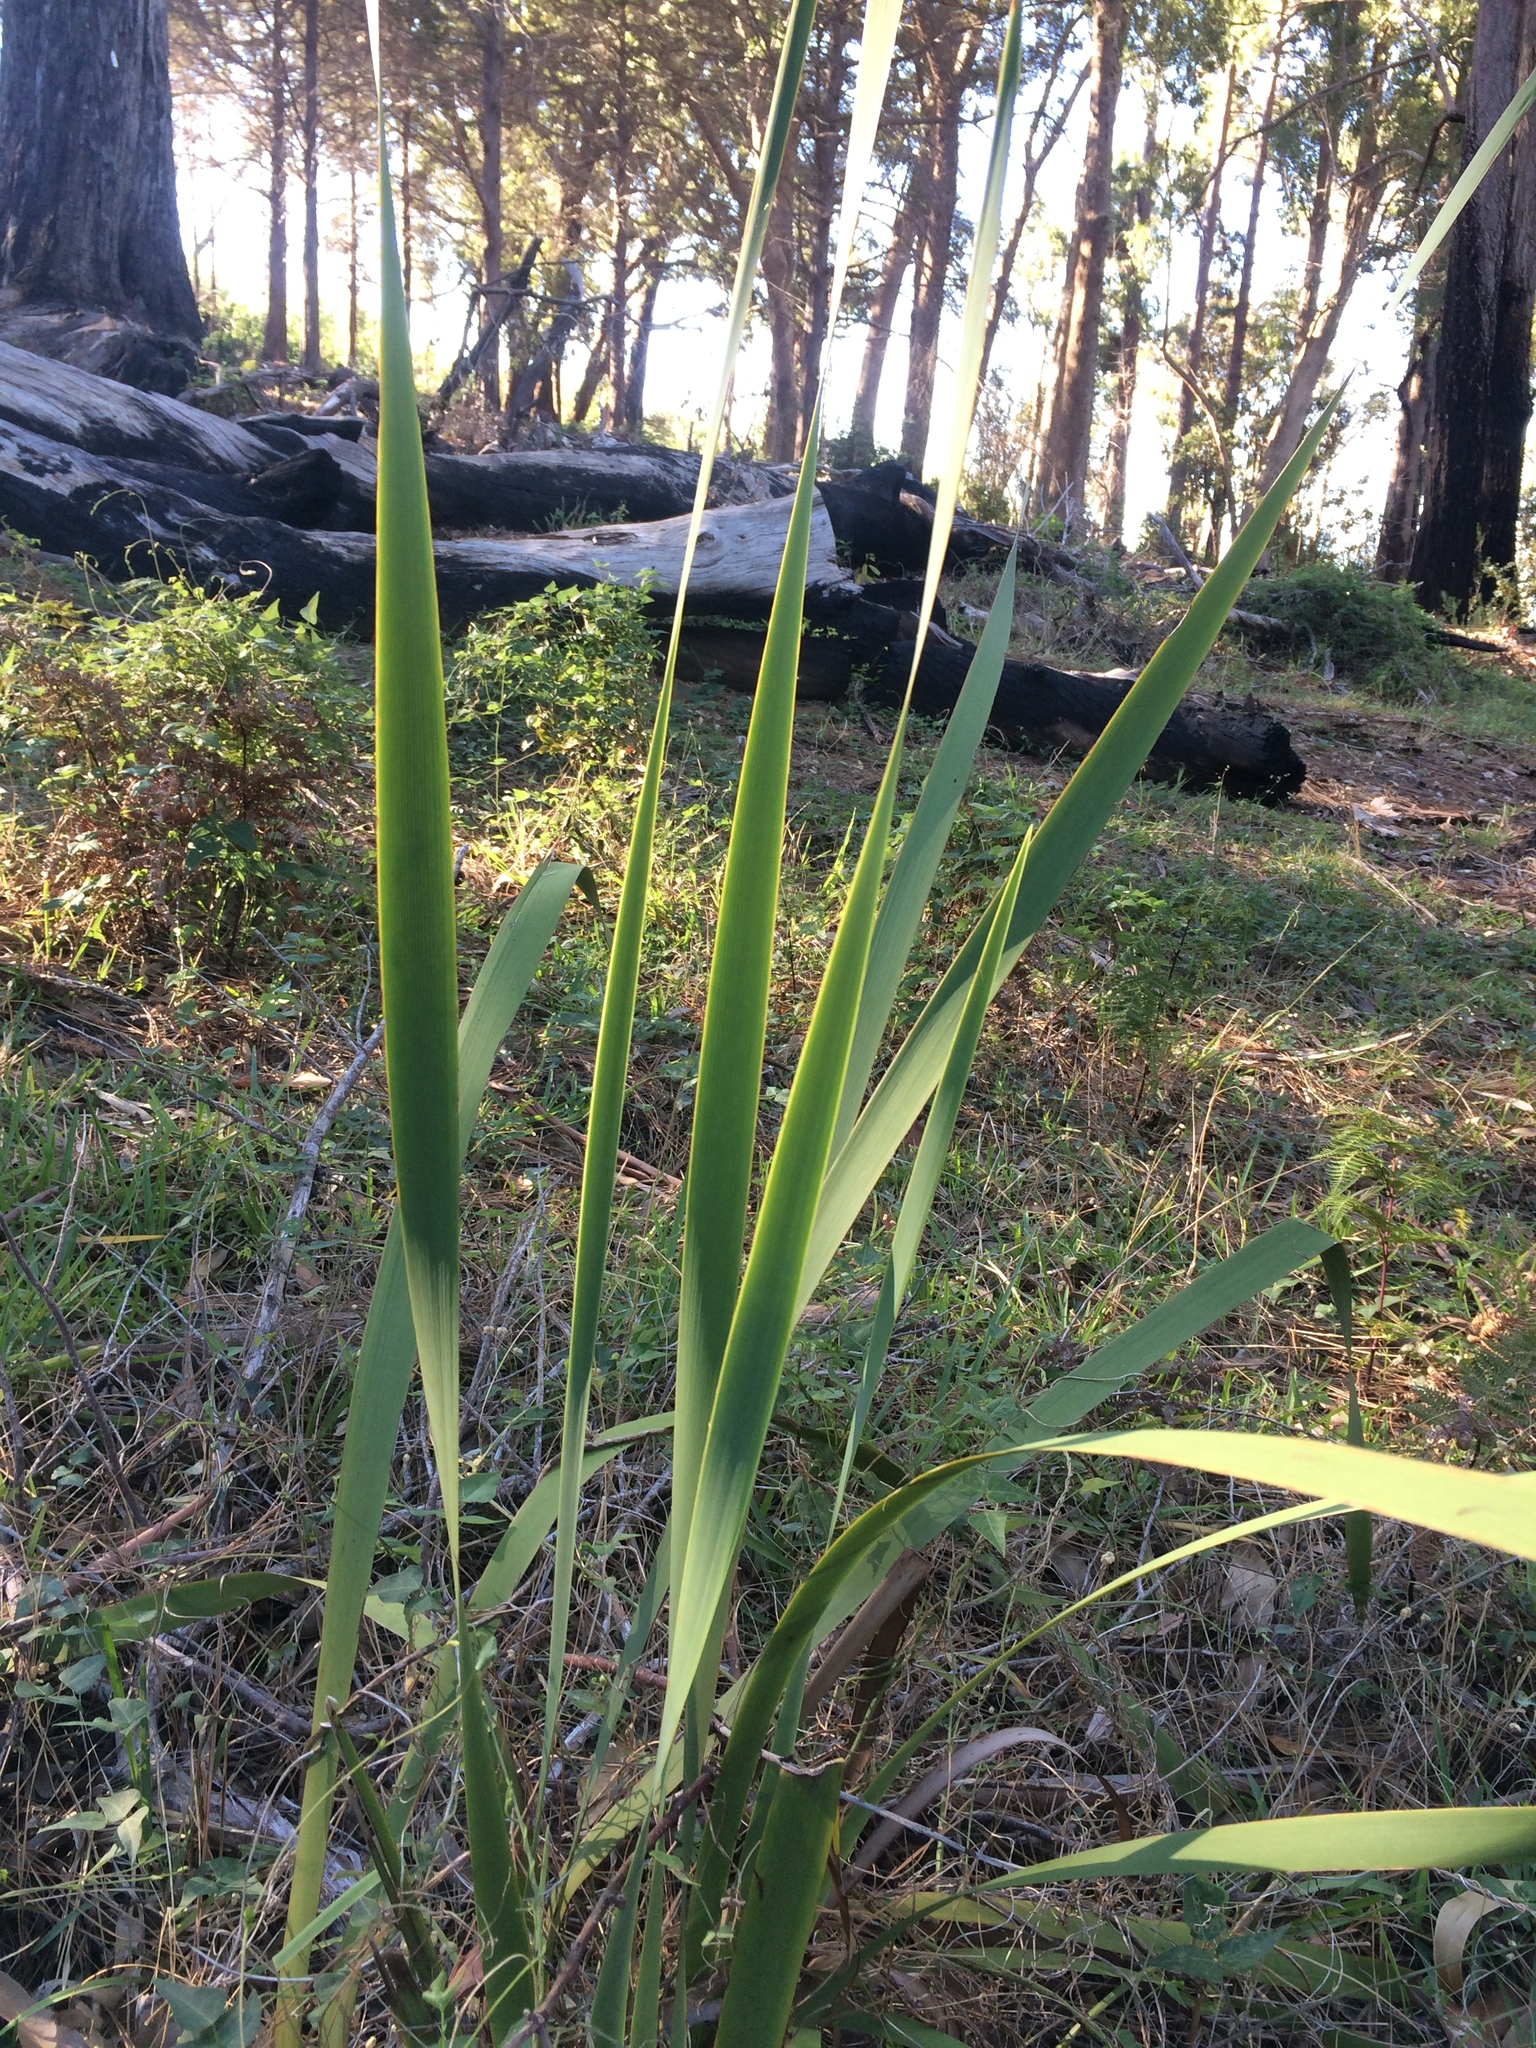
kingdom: Plantae
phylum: Tracheophyta
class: Liliopsida
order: Asparagales
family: Iridaceae
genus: Aristea
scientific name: Aristea capitata
